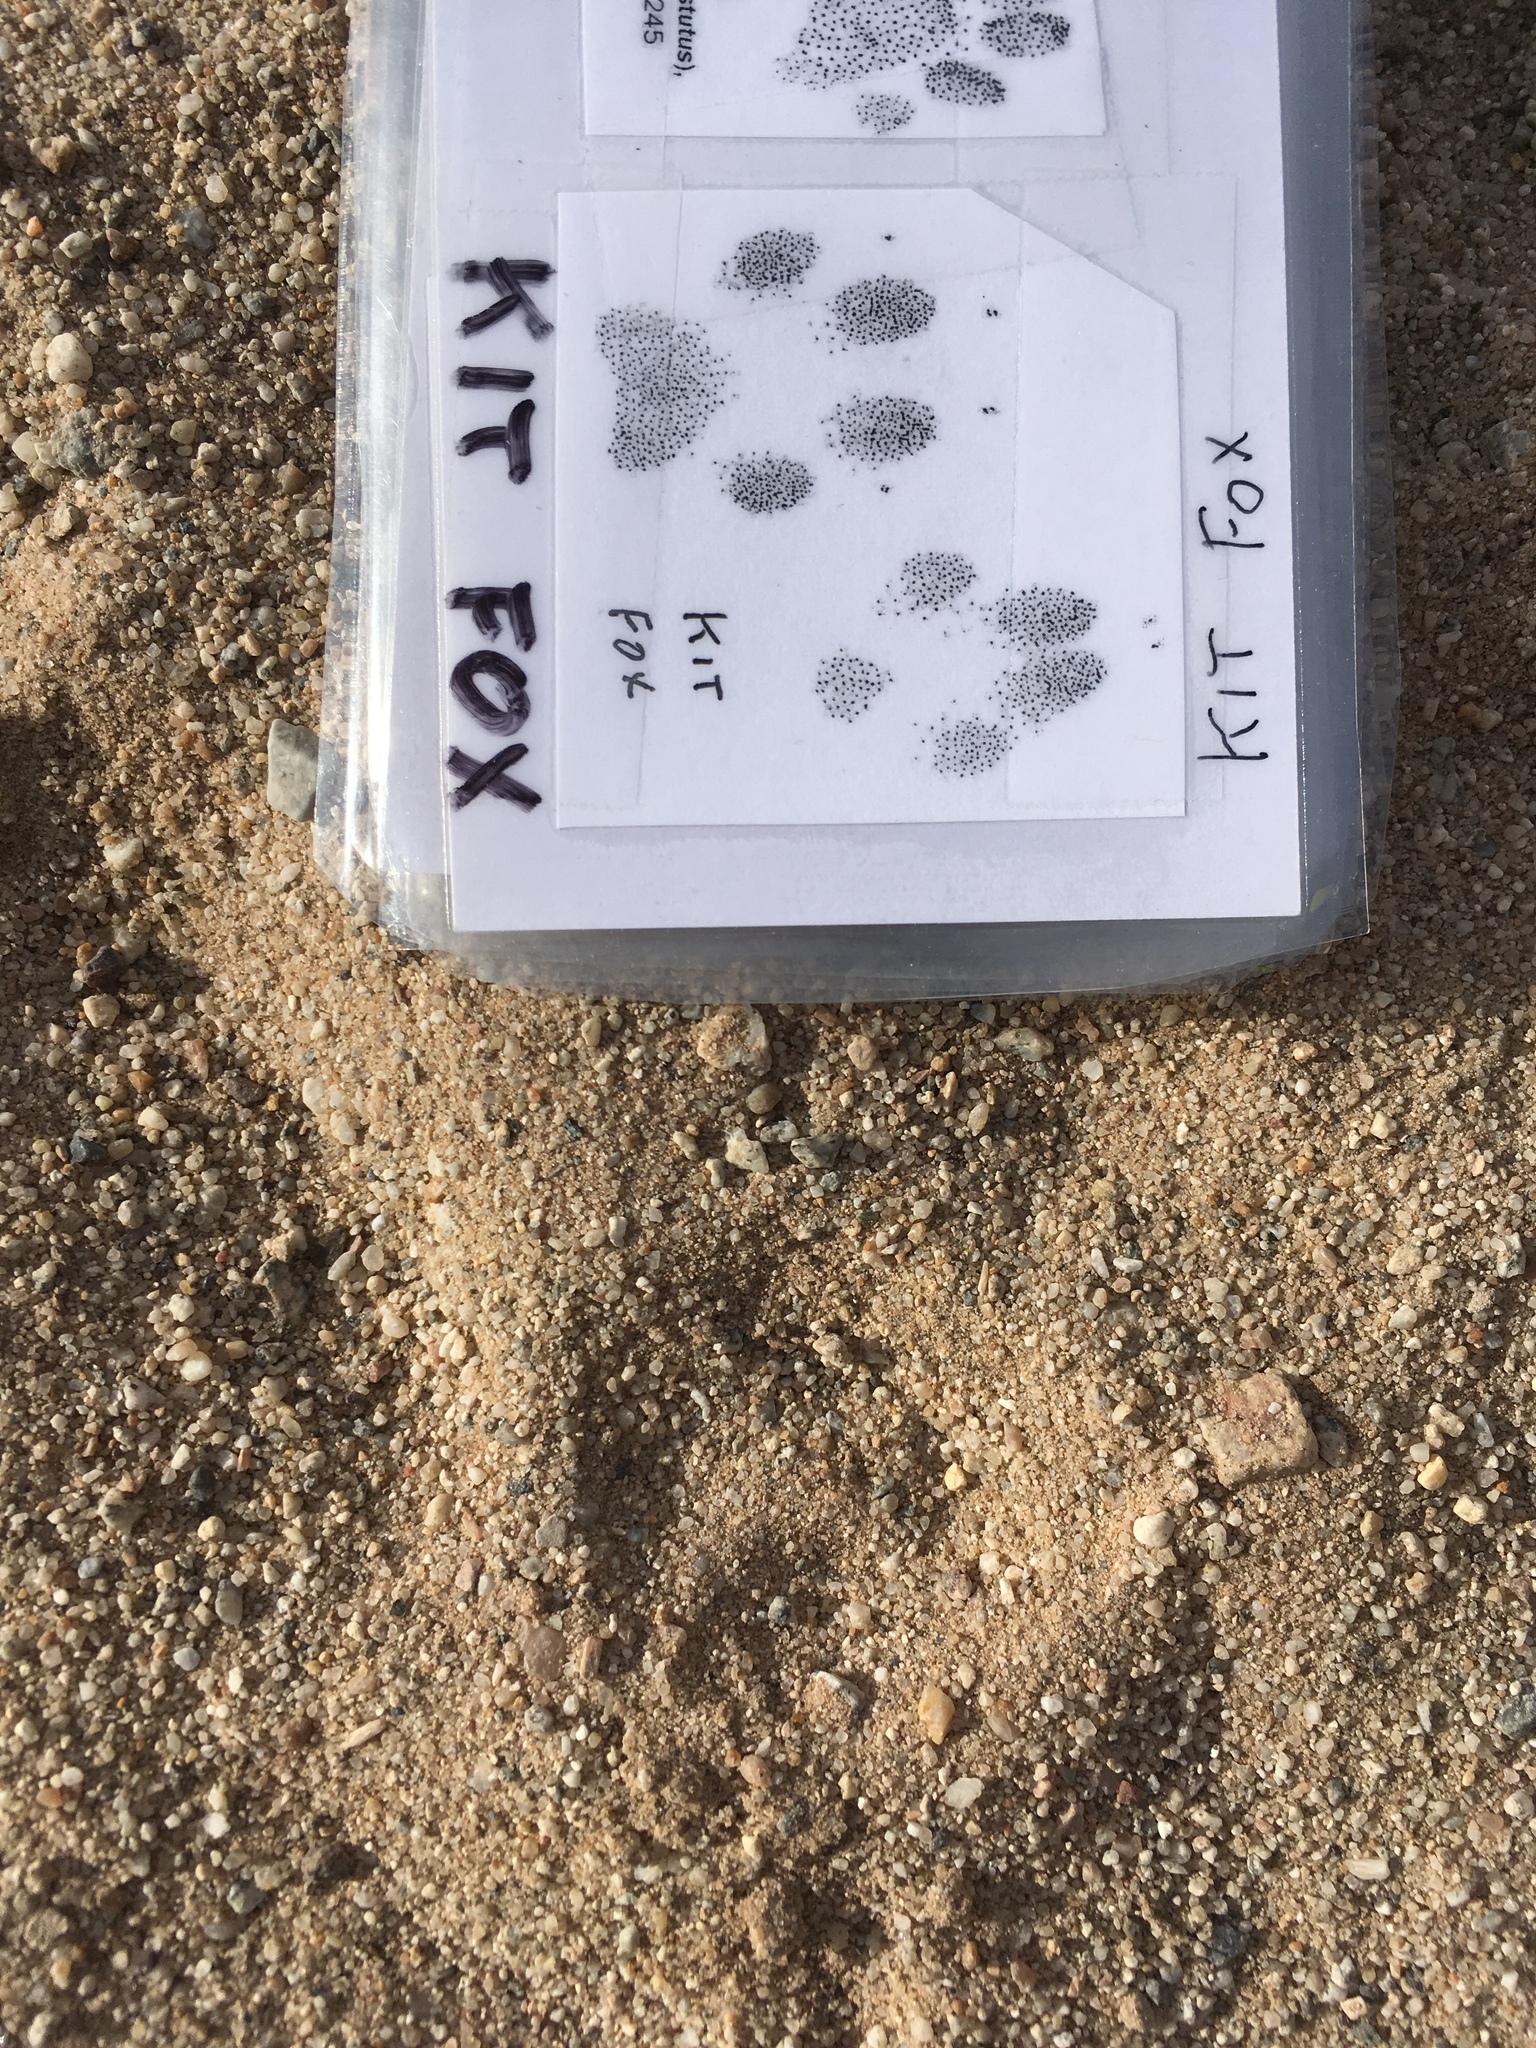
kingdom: Animalia
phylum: Chordata
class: Mammalia
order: Carnivora
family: Canidae
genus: Vulpes
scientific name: Vulpes macrotis
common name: Kit fox
